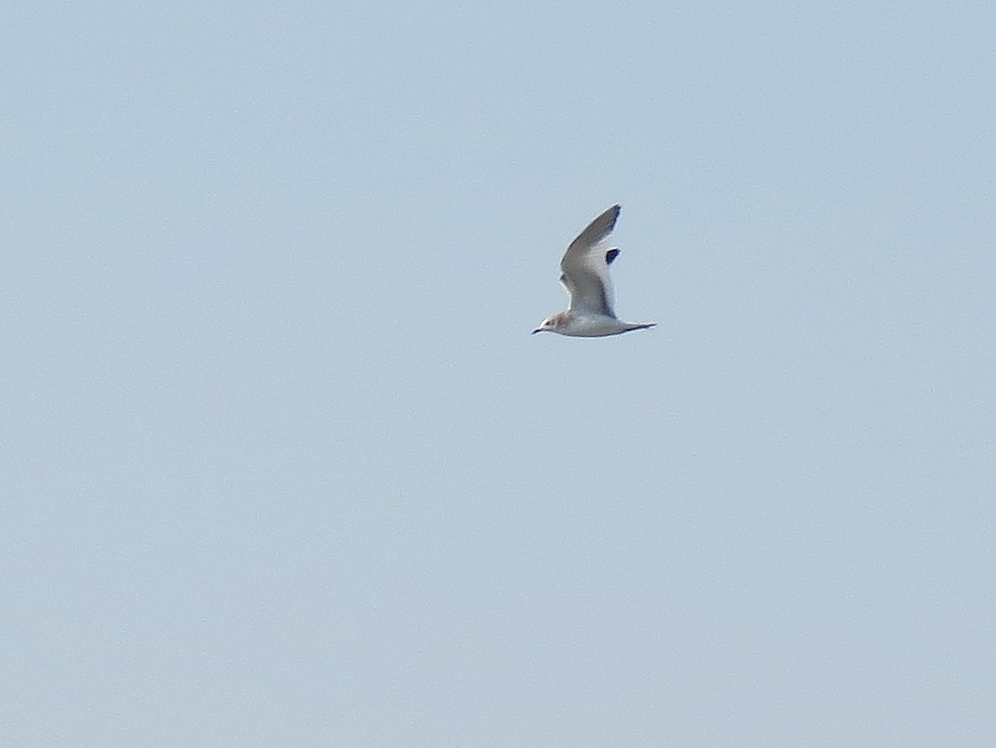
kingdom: Animalia
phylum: Chordata
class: Aves
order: Charadriiformes
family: Laridae
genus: Xema
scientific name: Xema sabini
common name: Sabine's gull
